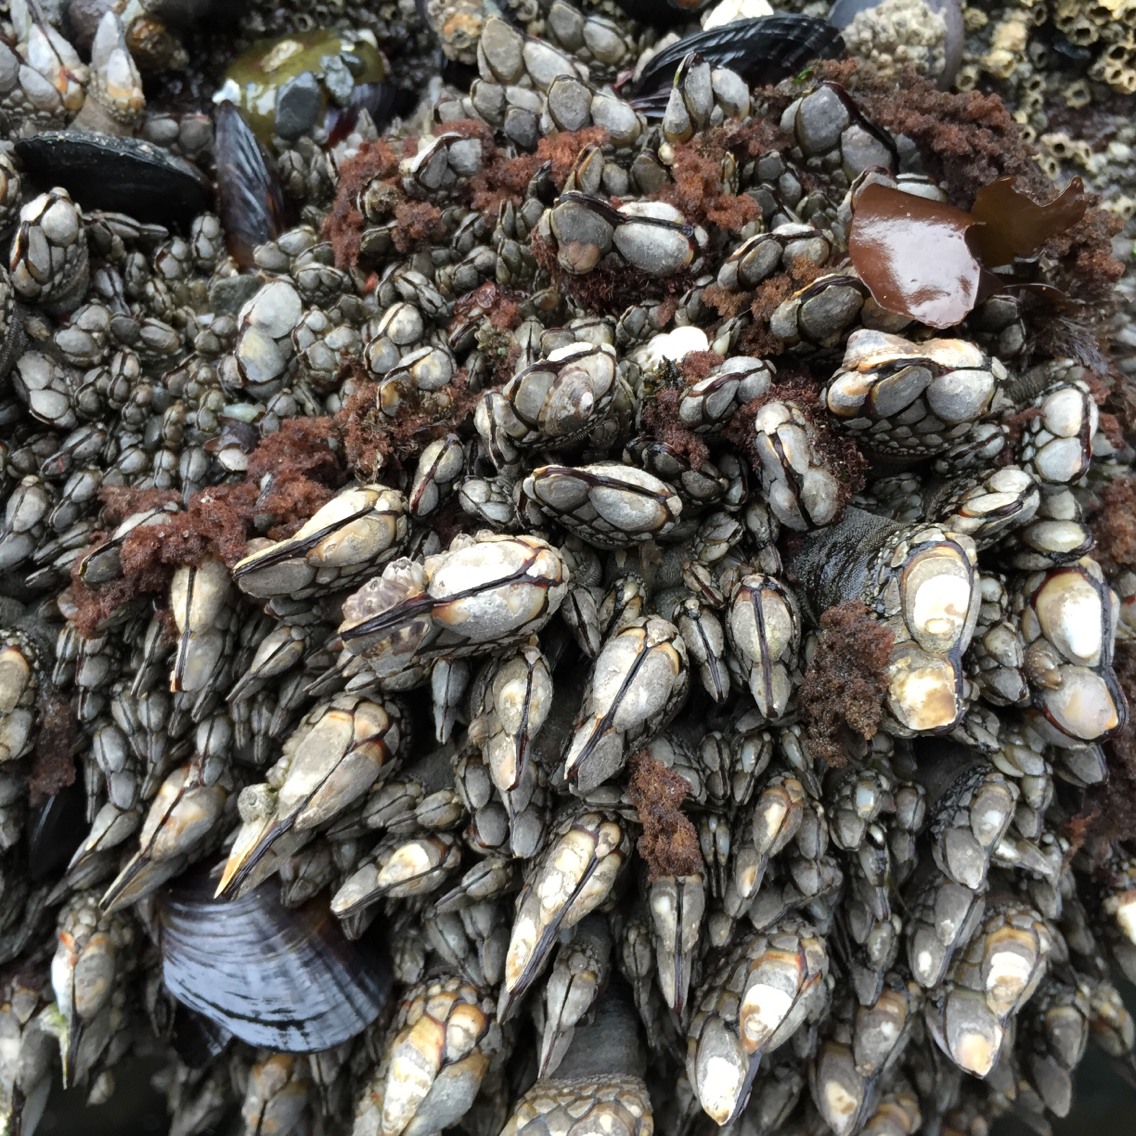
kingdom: Animalia
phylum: Arthropoda
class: Maxillopoda
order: Pedunculata
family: Pollicipedidae
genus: Pollicipes
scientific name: Pollicipes polymerus
